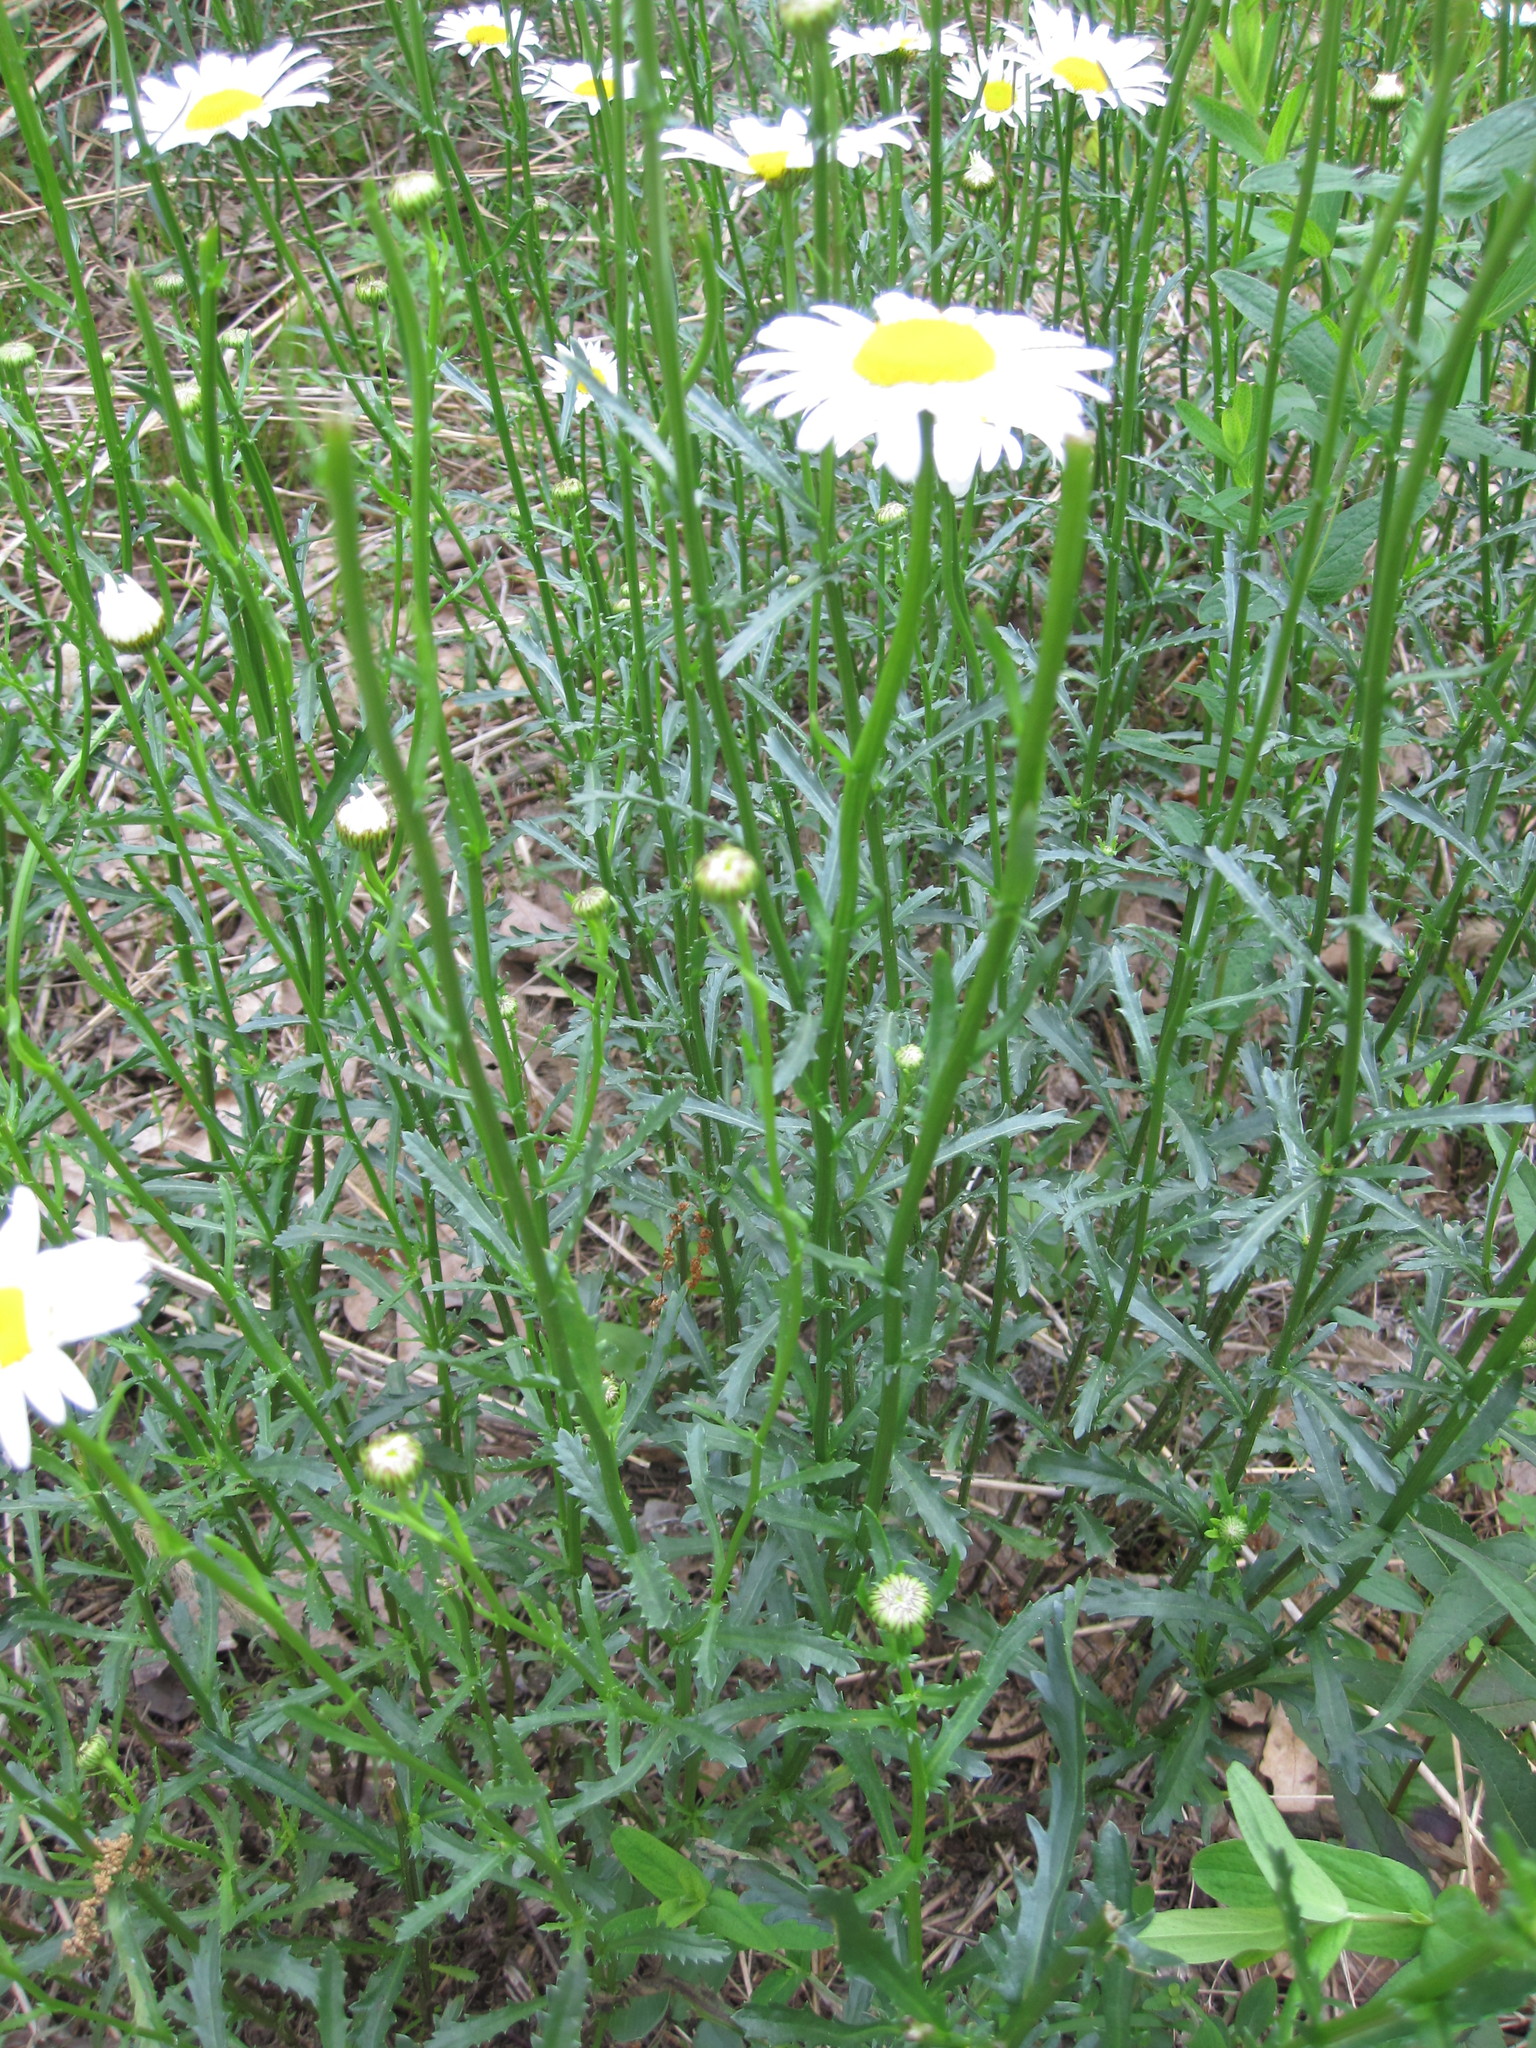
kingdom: Plantae
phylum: Tracheophyta
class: Magnoliopsida
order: Asterales
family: Asteraceae
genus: Leucanthemum
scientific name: Leucanthemum vulgare
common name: Oxeye daisy
